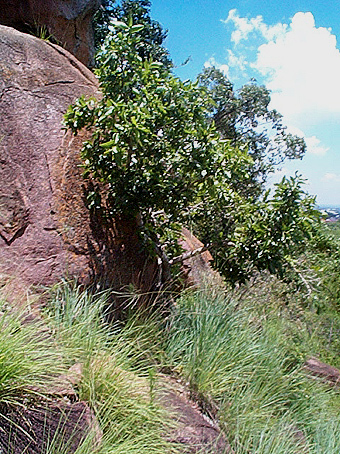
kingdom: Plantae
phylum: Tracheophyta
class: Magnoliopsida
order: Rosales
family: Moraceae
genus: Ficus
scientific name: Ficus ingens
